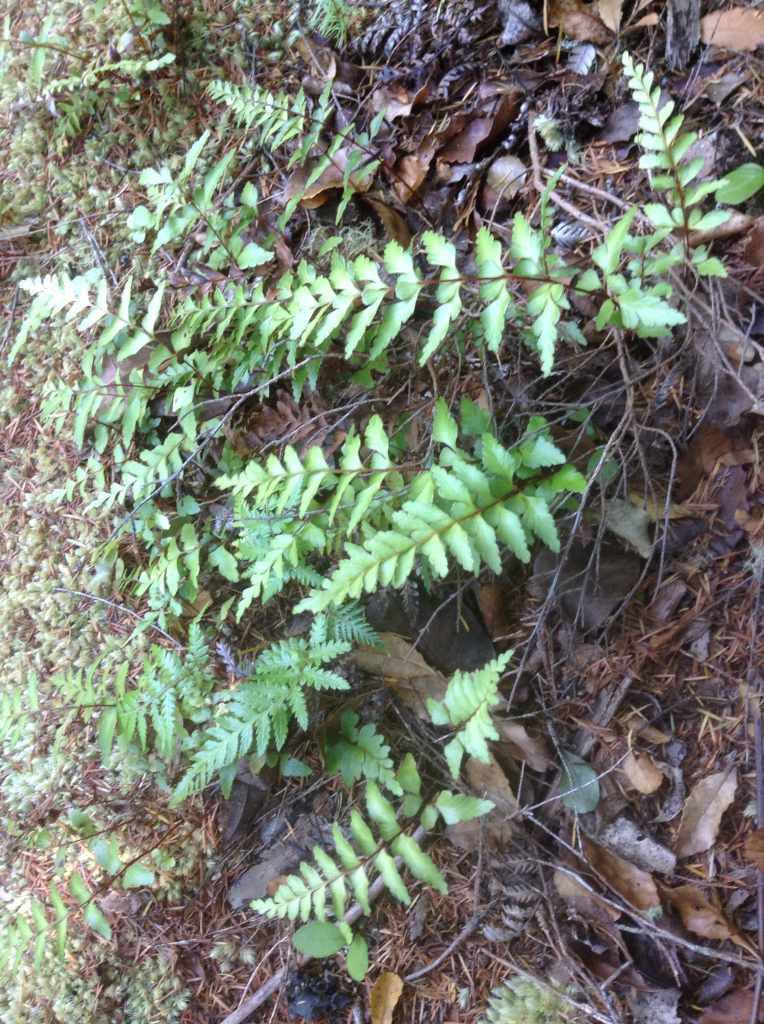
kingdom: Plantae
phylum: Tracheophyta
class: Polypodiopsida
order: Polypodiales
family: Lindsaeaceae
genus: Lindsaea
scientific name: Lindsaea trichomanoides
